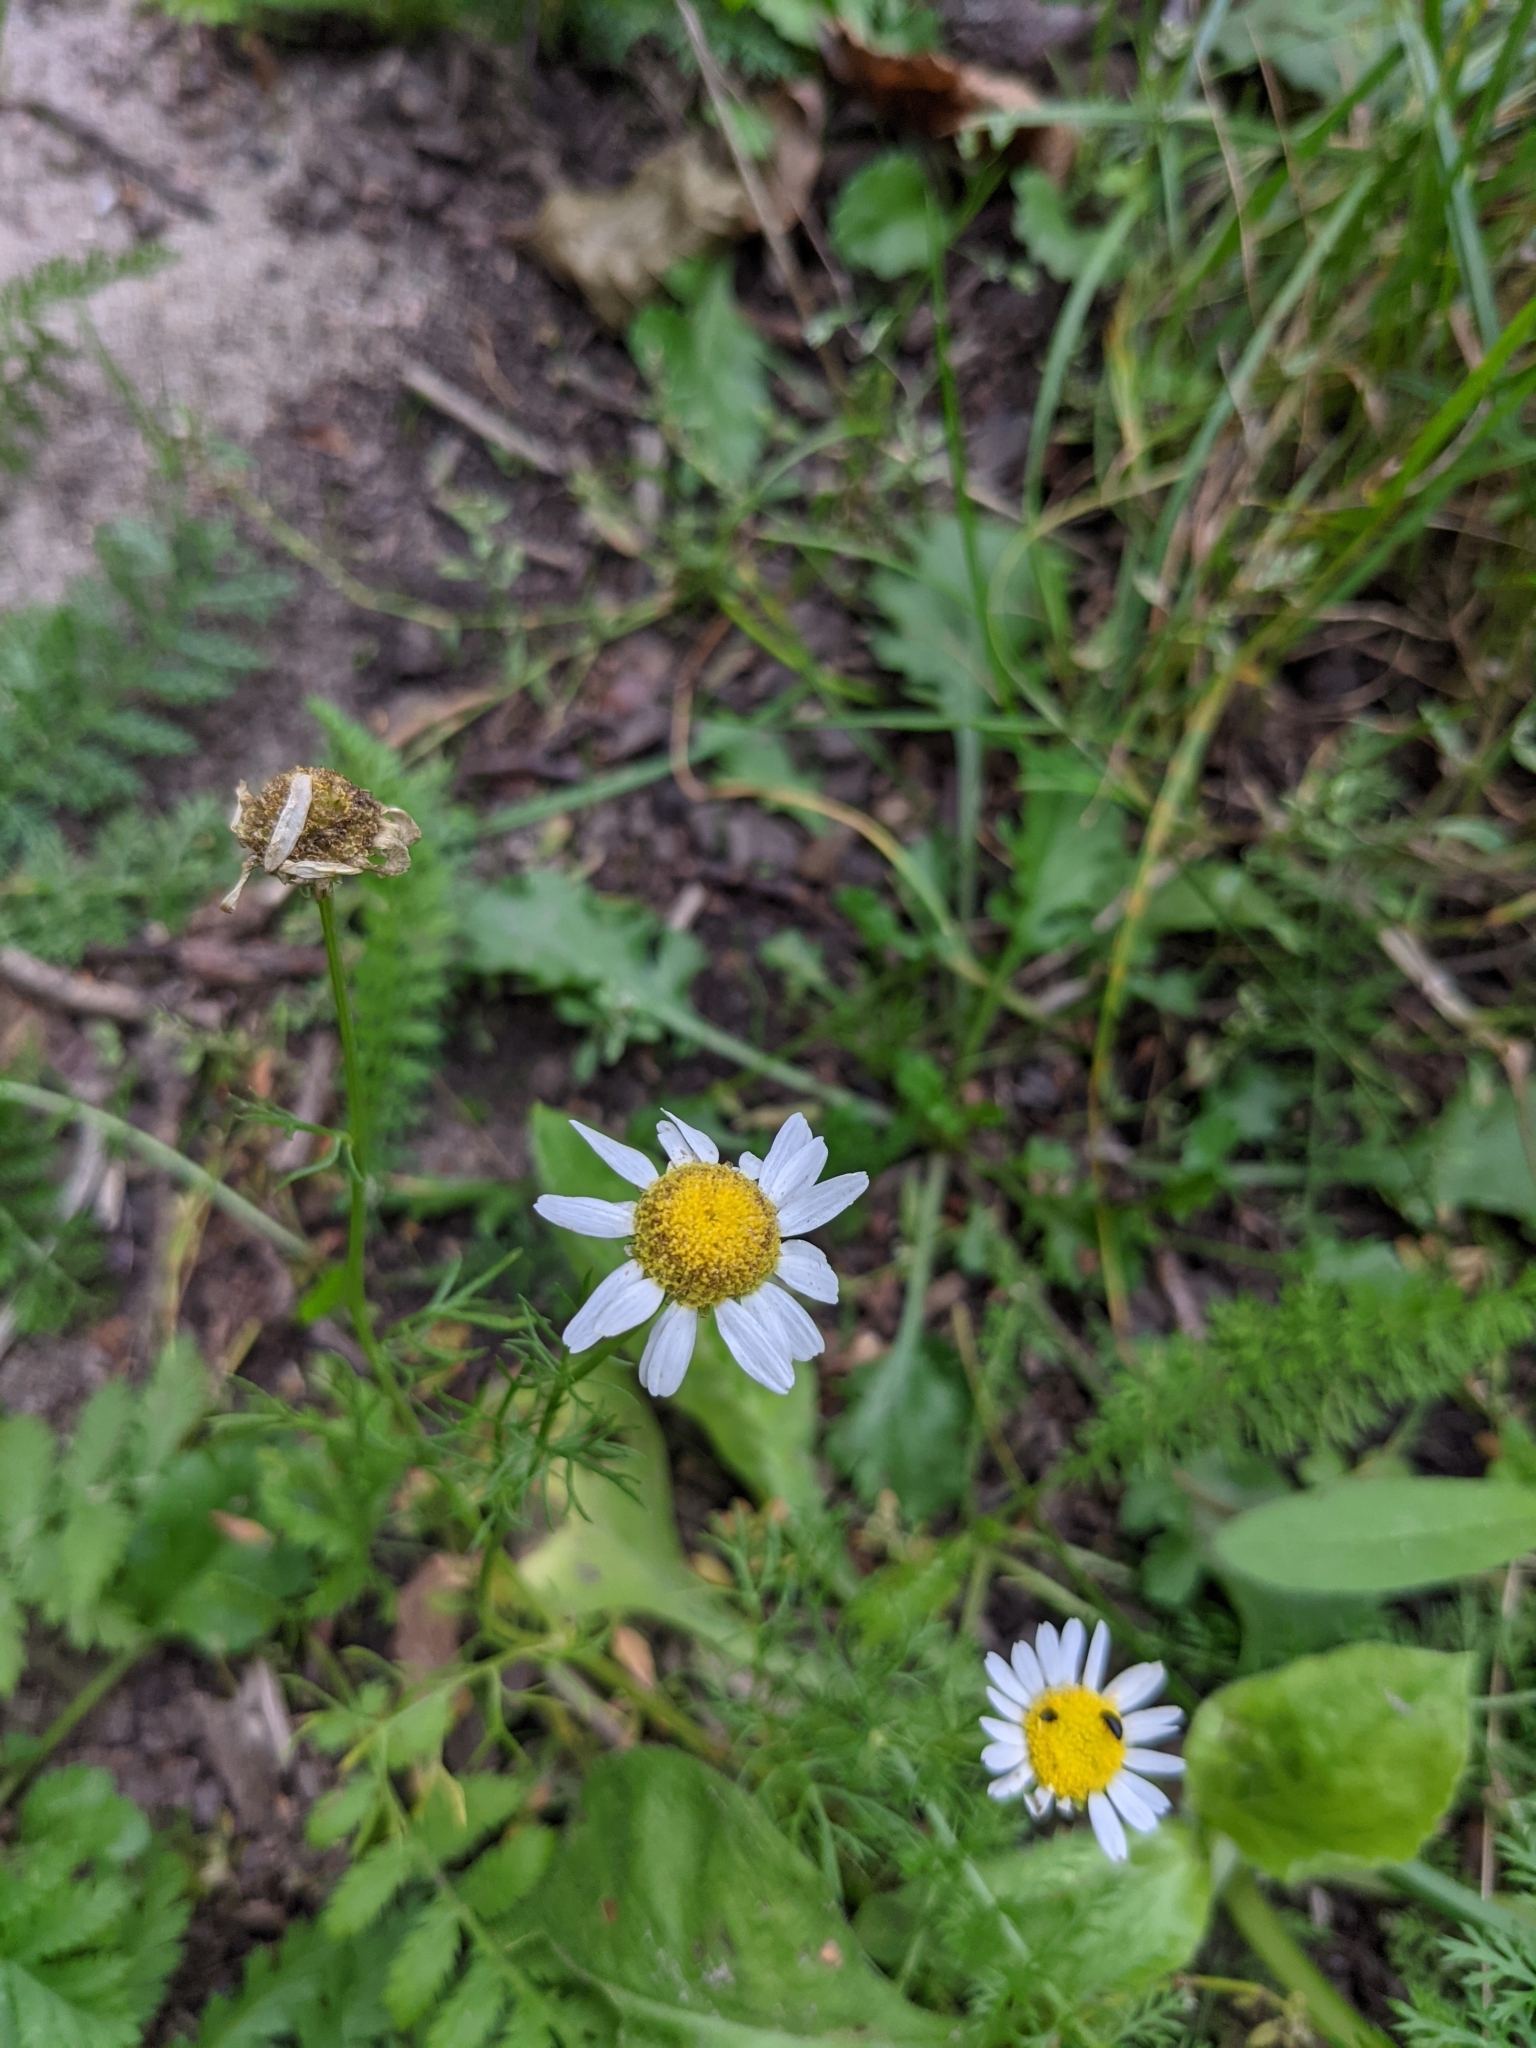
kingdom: Plantae
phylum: Tracheophyta
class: Magnoliopsida
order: Asterales
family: Asteraceae
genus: Tripleurospermum
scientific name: Tripleurospermum inodorum
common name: Scentless mayweed
